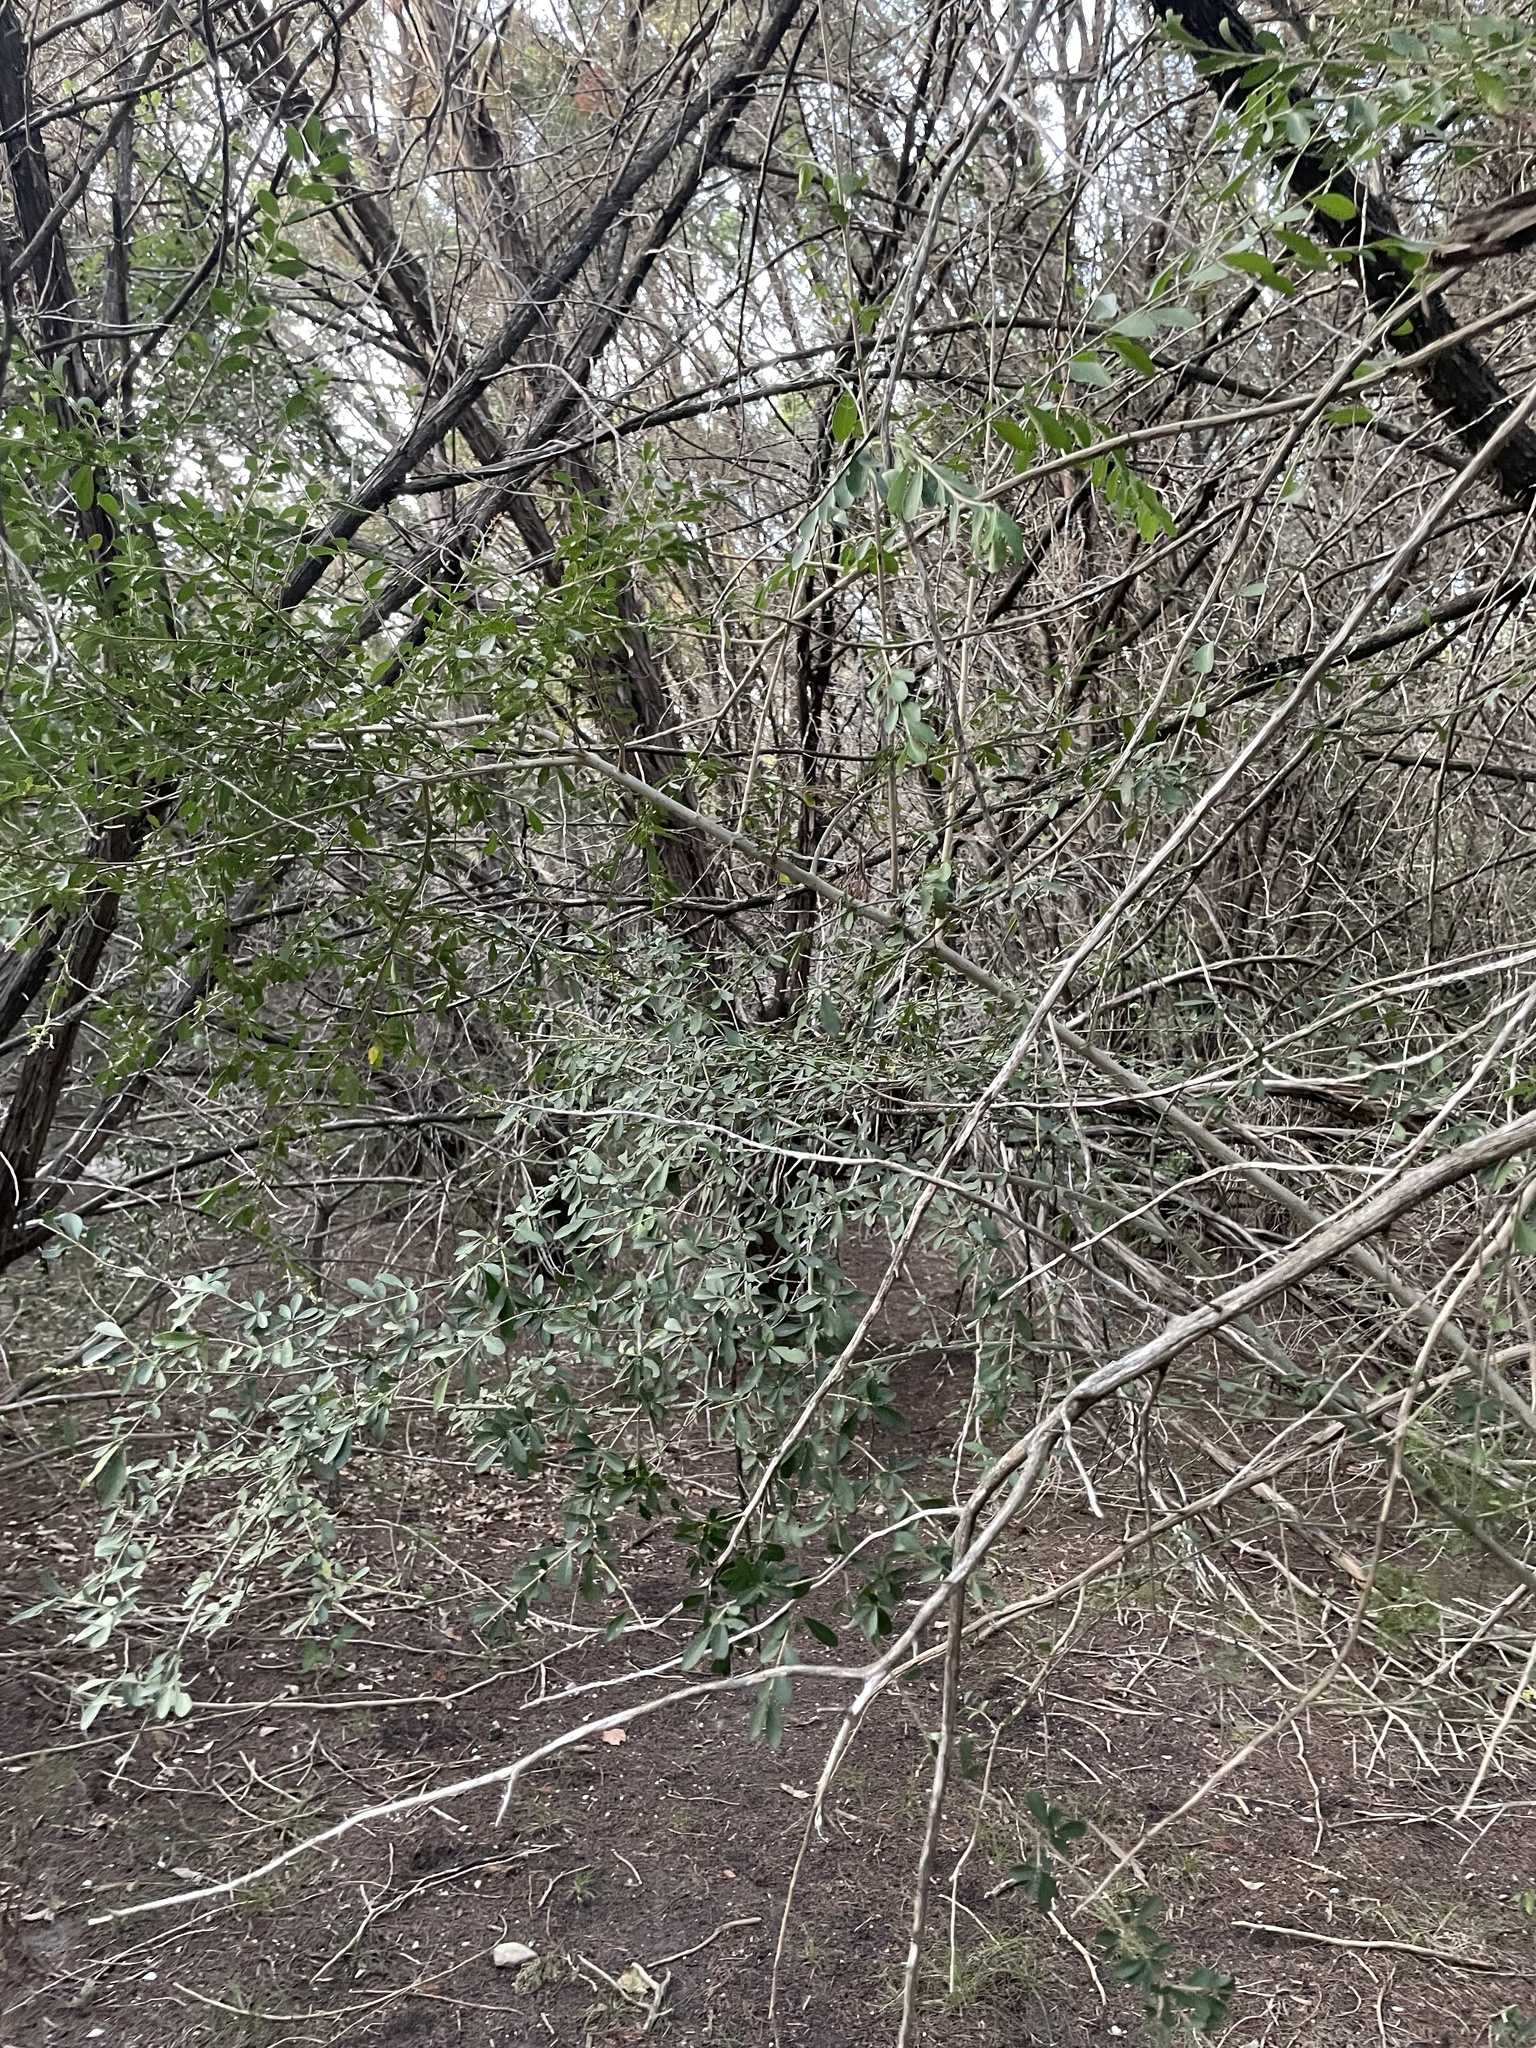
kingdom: Plantae
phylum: Tracheophyta
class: Magnoliopsida
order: Lamiales
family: Oleaceae
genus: Ligustrum
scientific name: Ligustrum quihoui
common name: Waxyleaf privet
